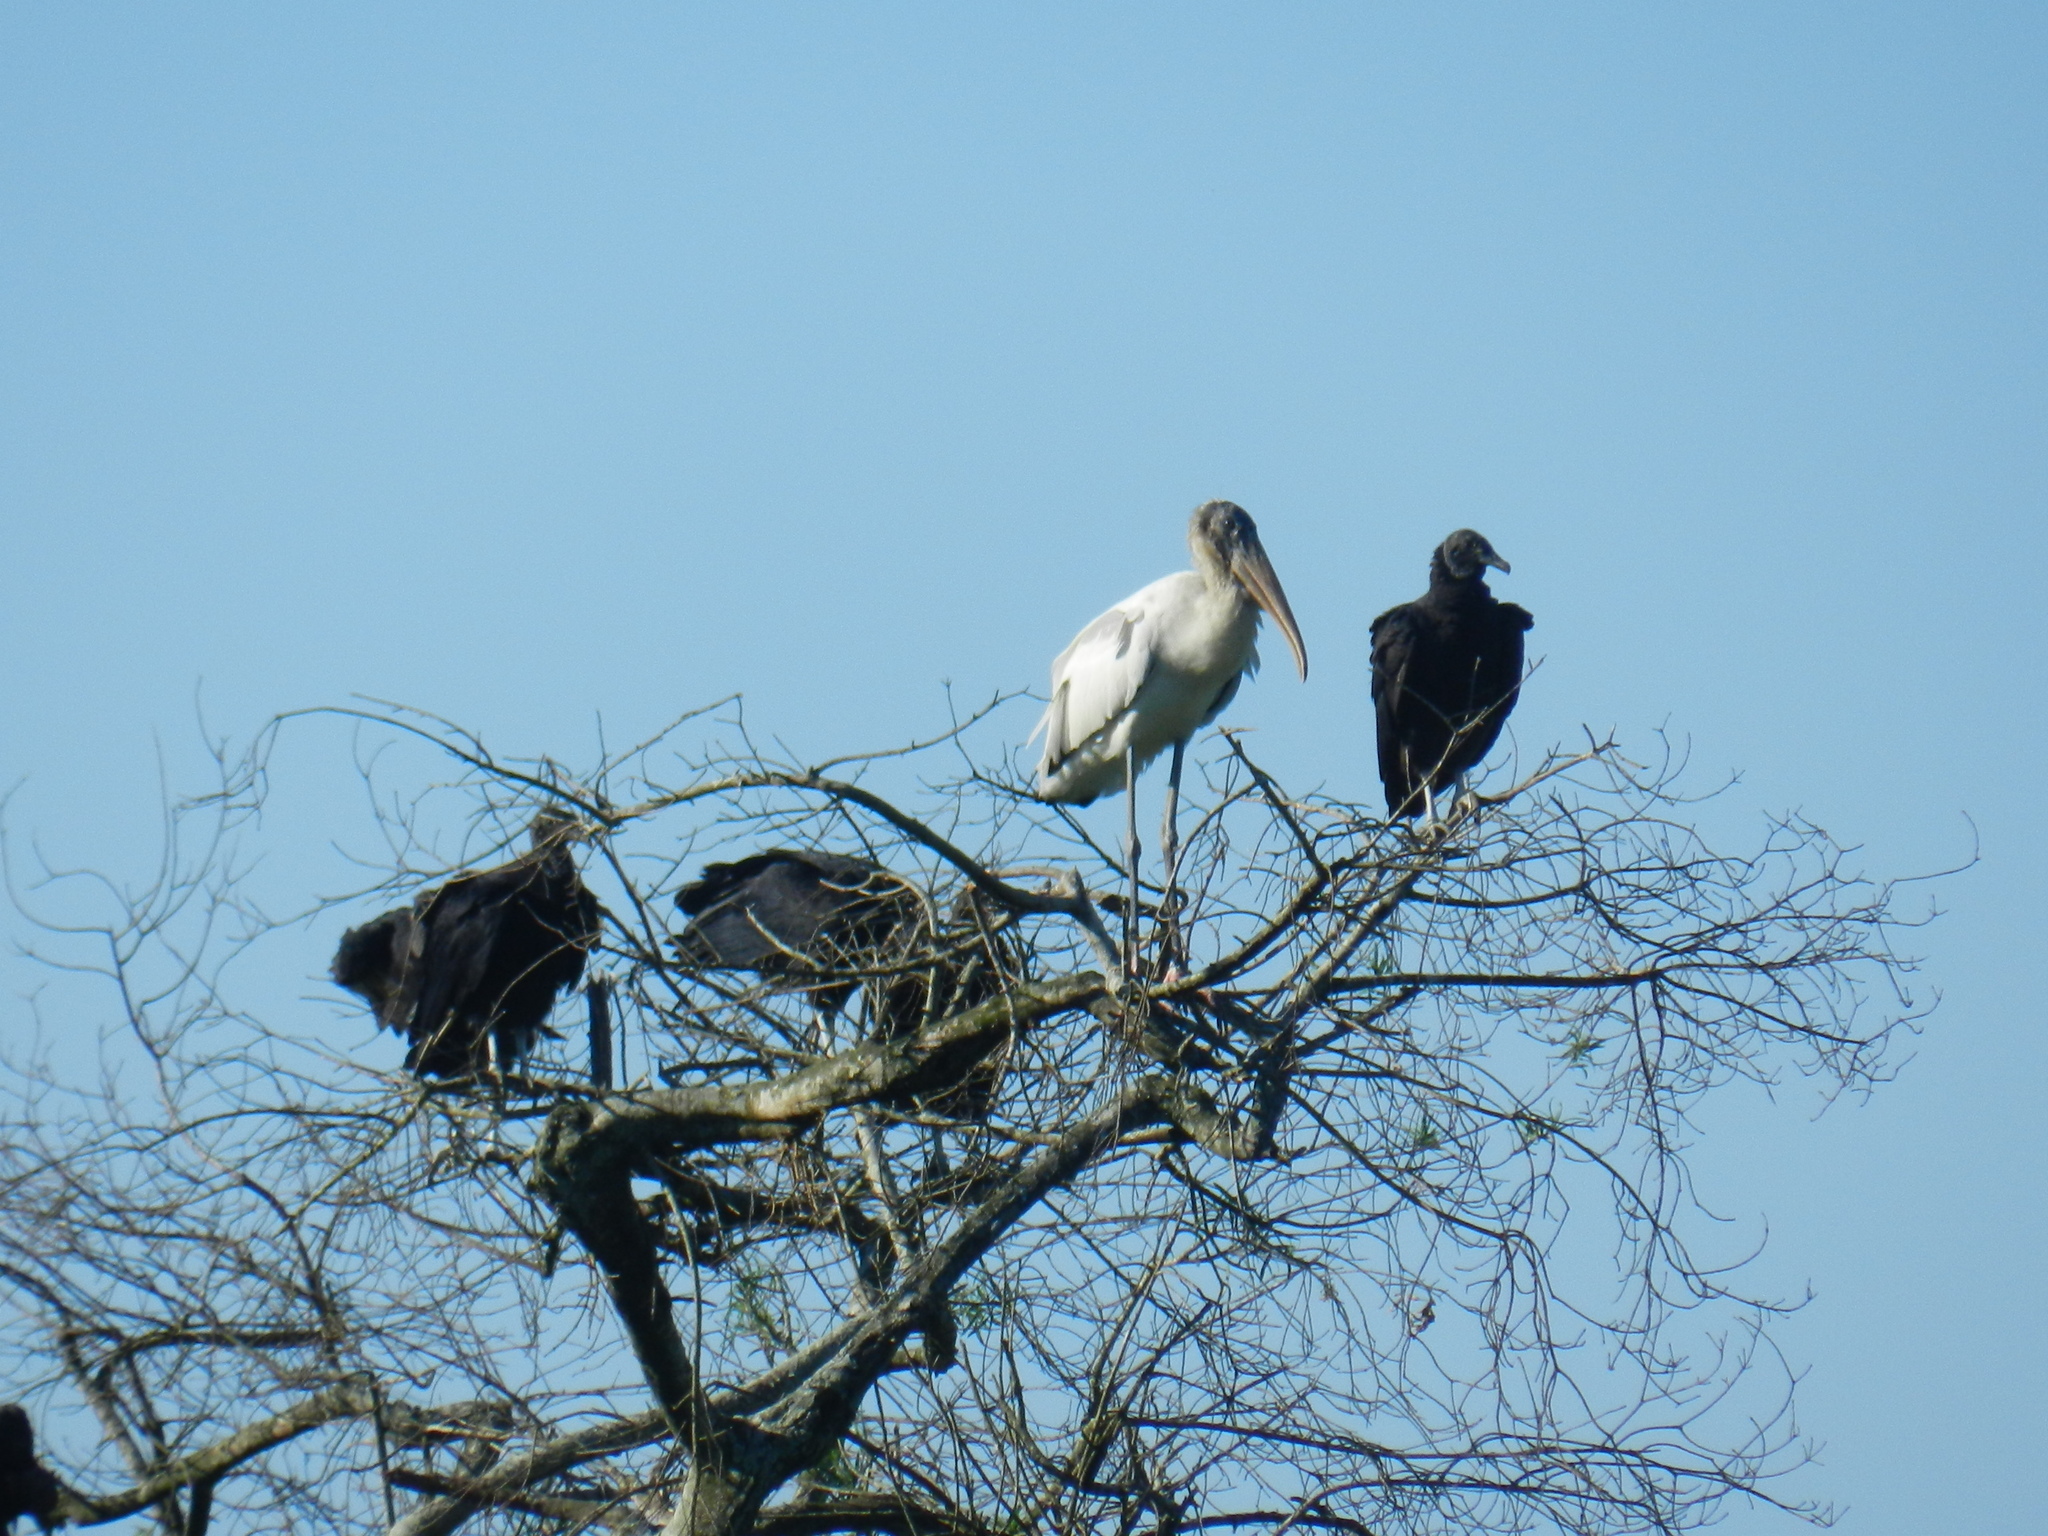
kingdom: Animalia
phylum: Chordata
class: Aves
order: Ciconiiformes
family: Ciconiidae
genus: Mycteria
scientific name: Mycteria americana
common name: Wood stork
